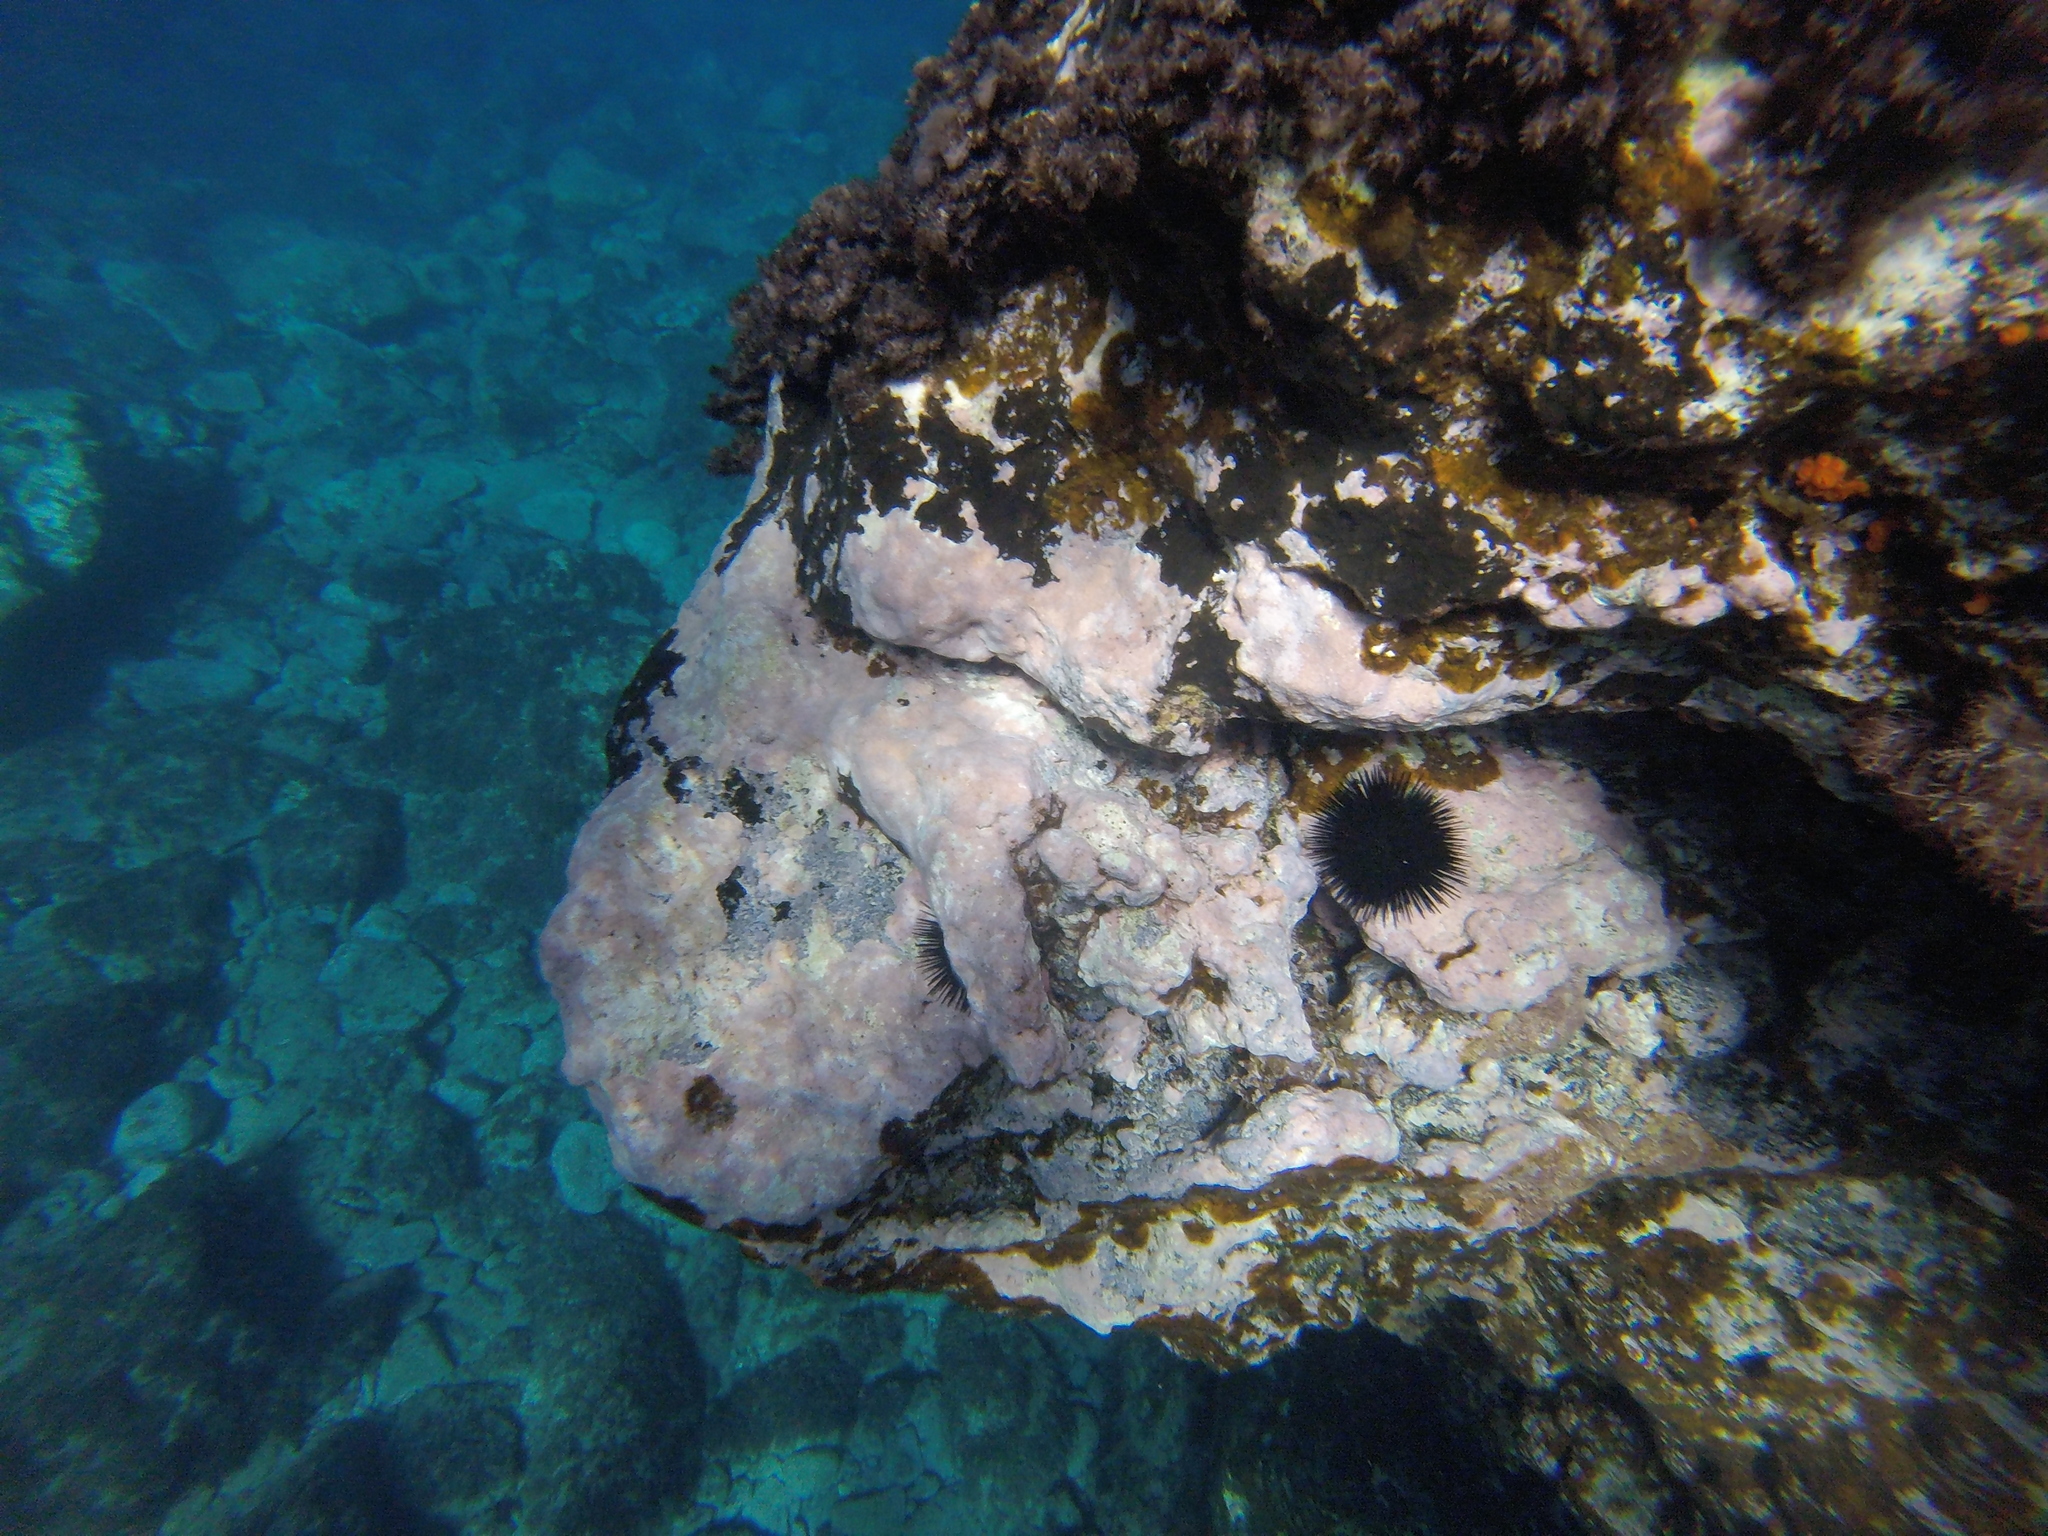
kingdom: Animalia
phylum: Echinodermata
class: Echinoidea
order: Arbacioida
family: Arbaciidae
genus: Arbacia
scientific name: Arbacia lixula
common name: Black sea urchin
